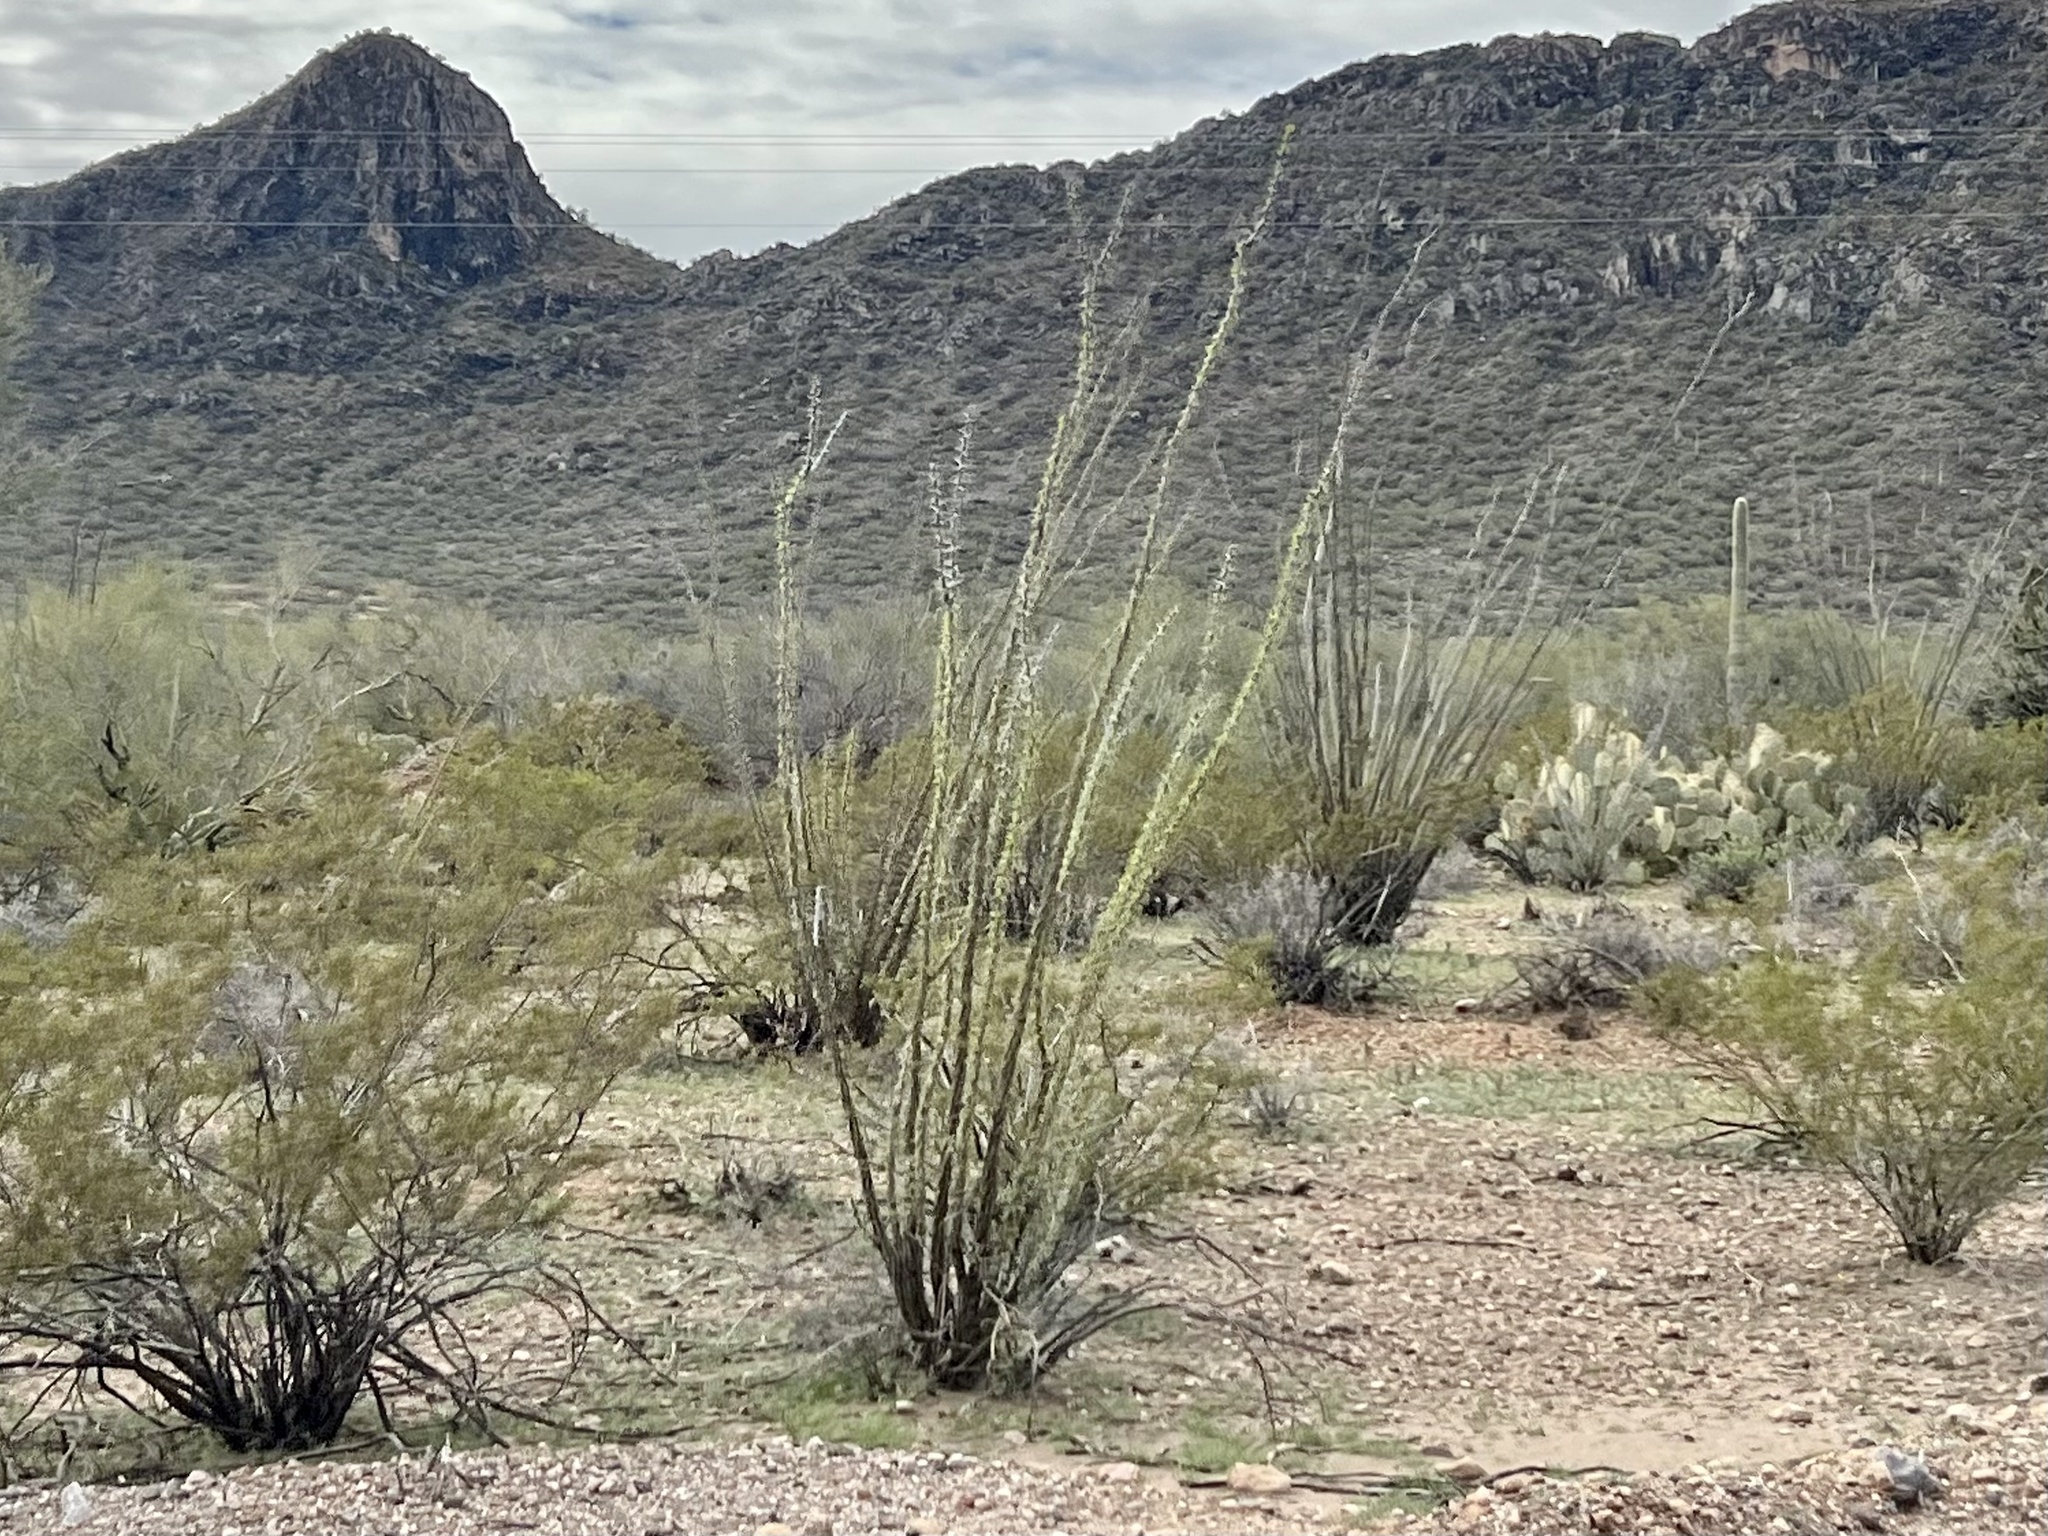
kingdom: Plantae
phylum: Tracheophyta
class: Magnoliopsida
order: Ericales
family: Fouquieriaceae
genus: Fouquieria
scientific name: Fouquieria splendens
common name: Vine-cactus
